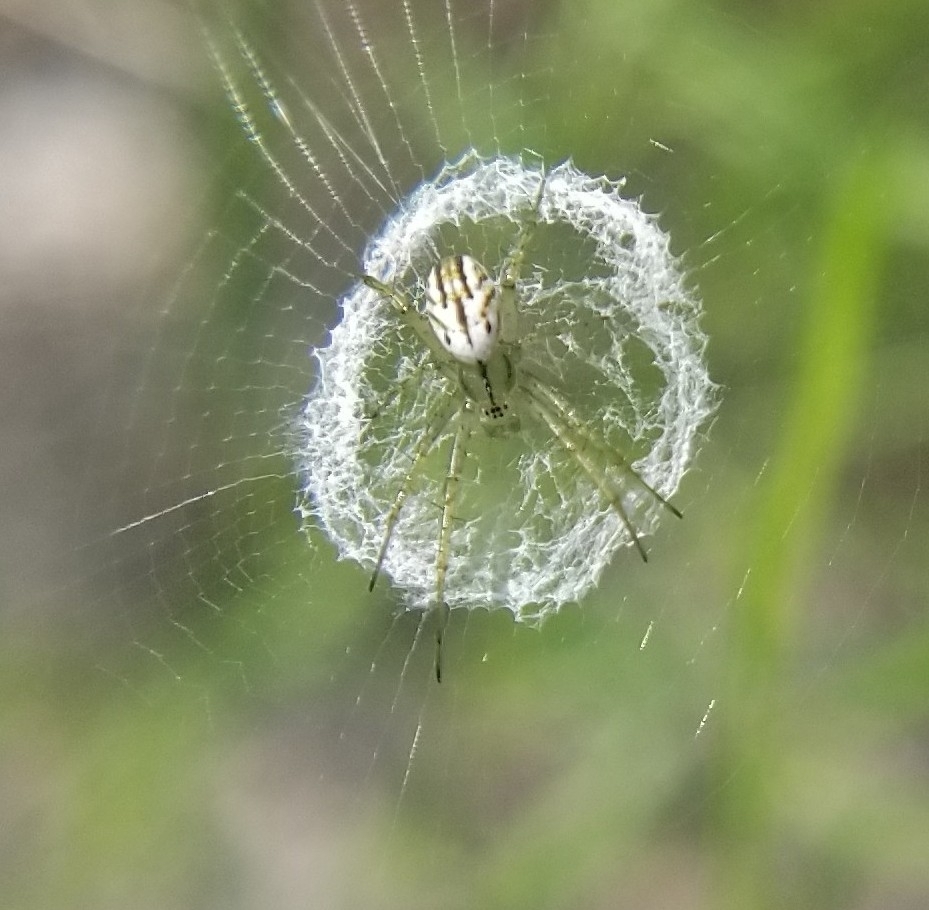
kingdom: Animalia
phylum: Arthropoda
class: Arachnida
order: Araneae
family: Araneidae
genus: Mangora
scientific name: Mangora gibberosa
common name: Lined orbweaver
